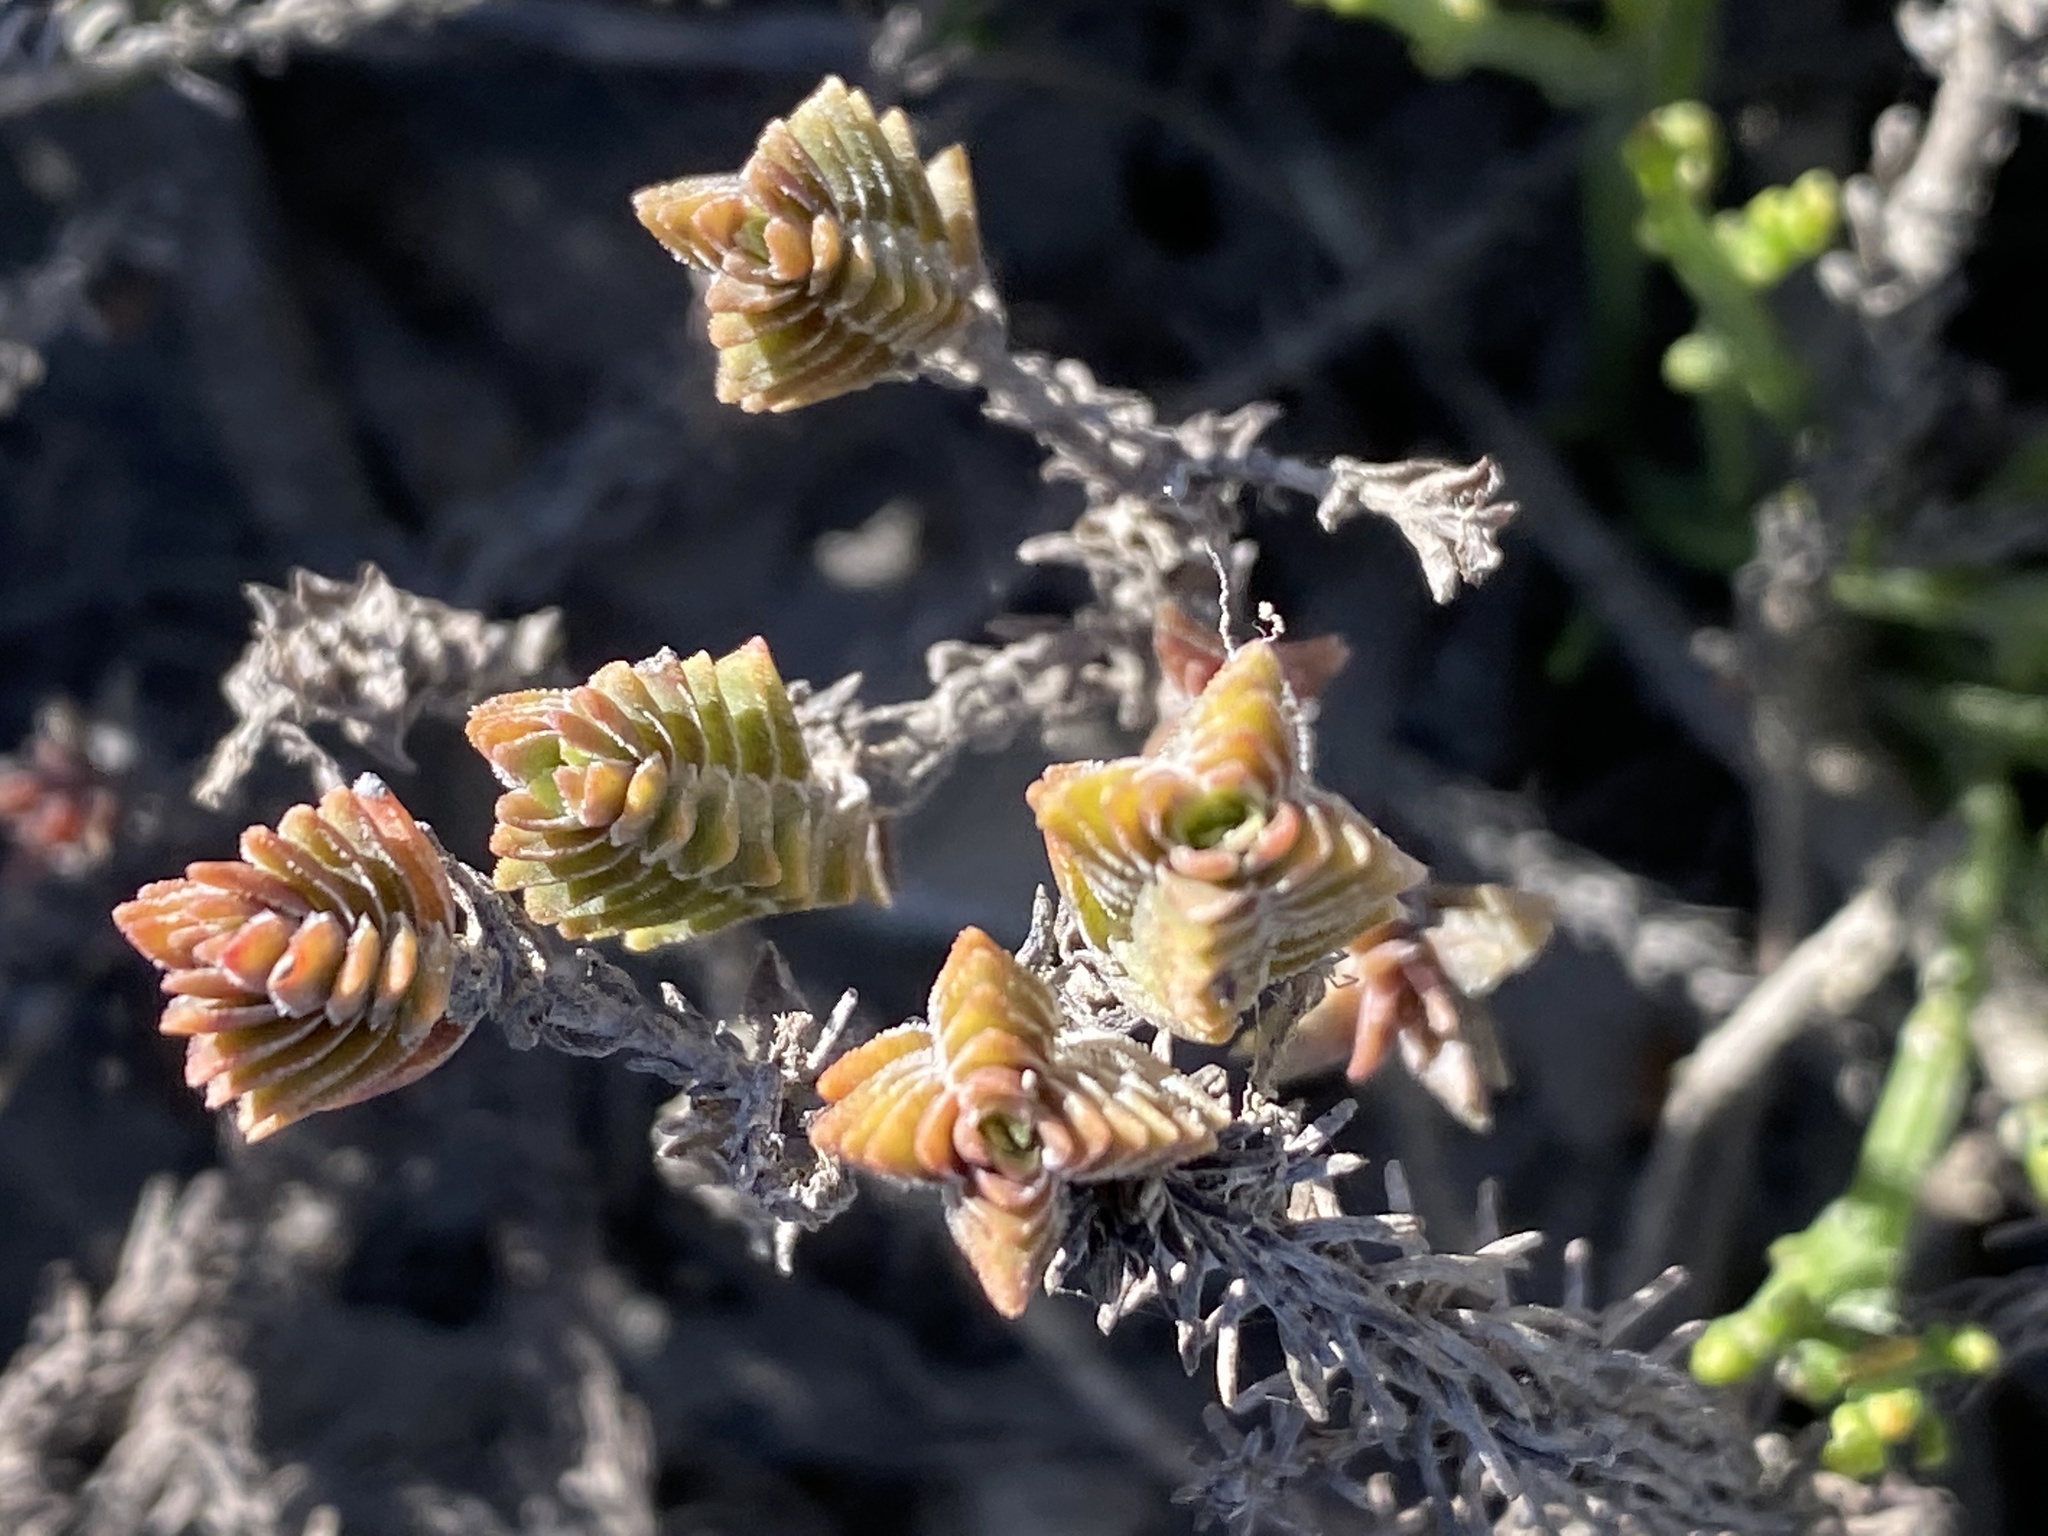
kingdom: Plantae
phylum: Tracheophyta
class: Magnoliopsida
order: Saxifragales
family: Crassulaceae
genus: Crassula
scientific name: Crassula subulata
